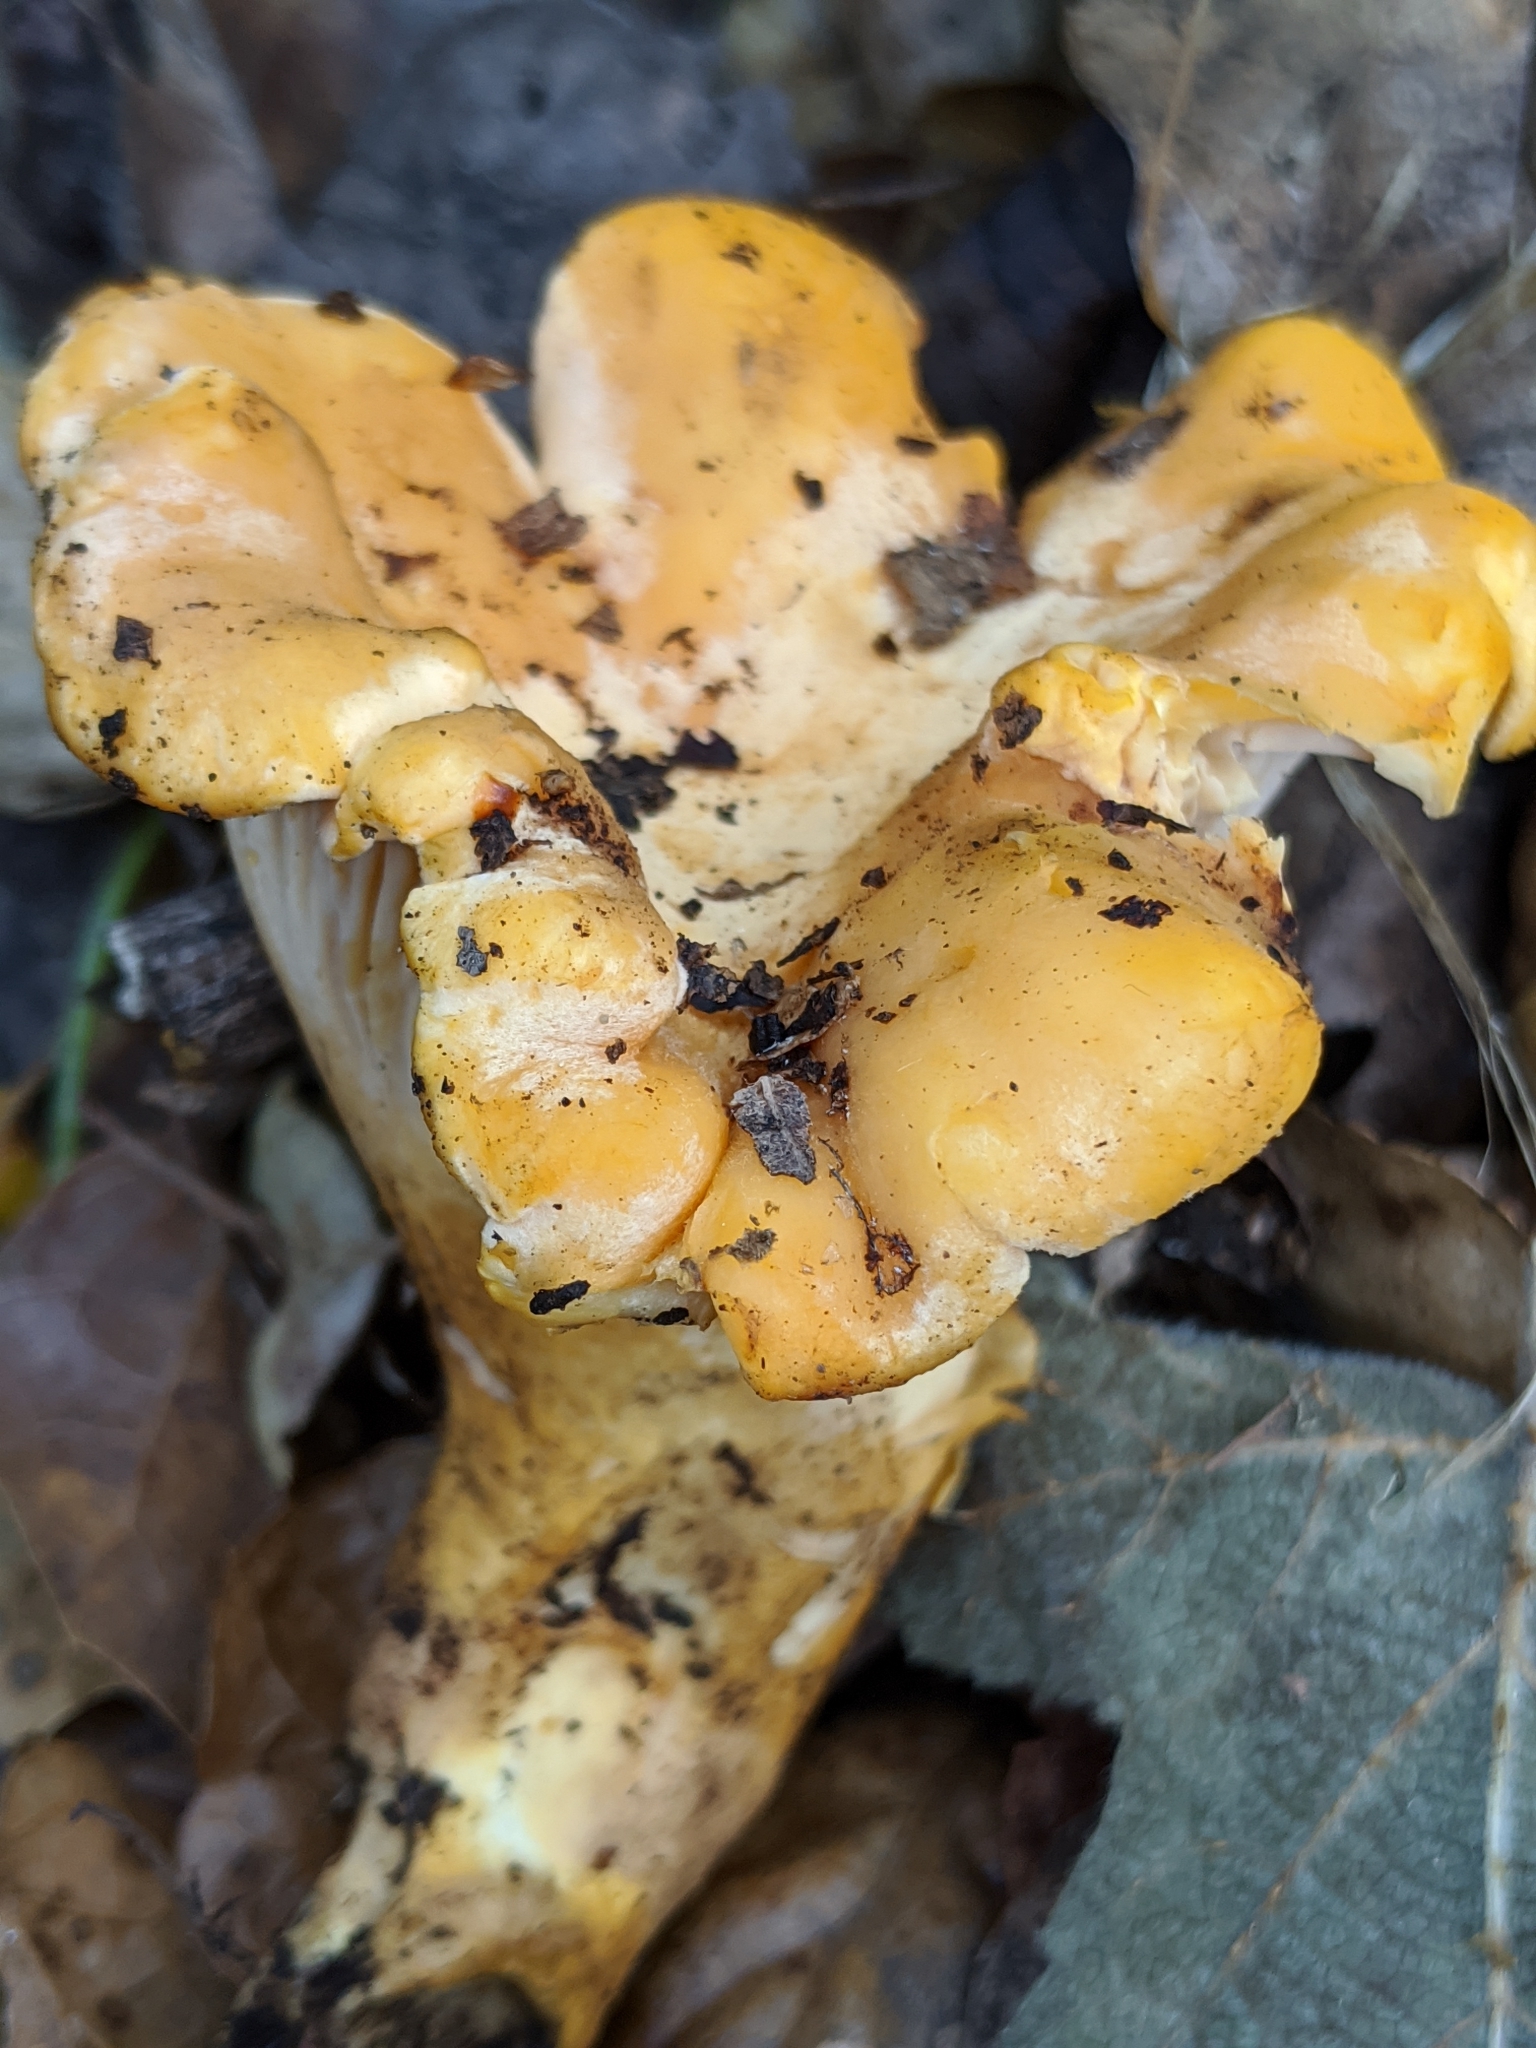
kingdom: Fungi
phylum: Basidiomycota
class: Agaricomycetes
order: Cantharellales
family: Hydnaceae
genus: Cantharellus
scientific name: Cantharellus californicus
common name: California golden chanterelle
